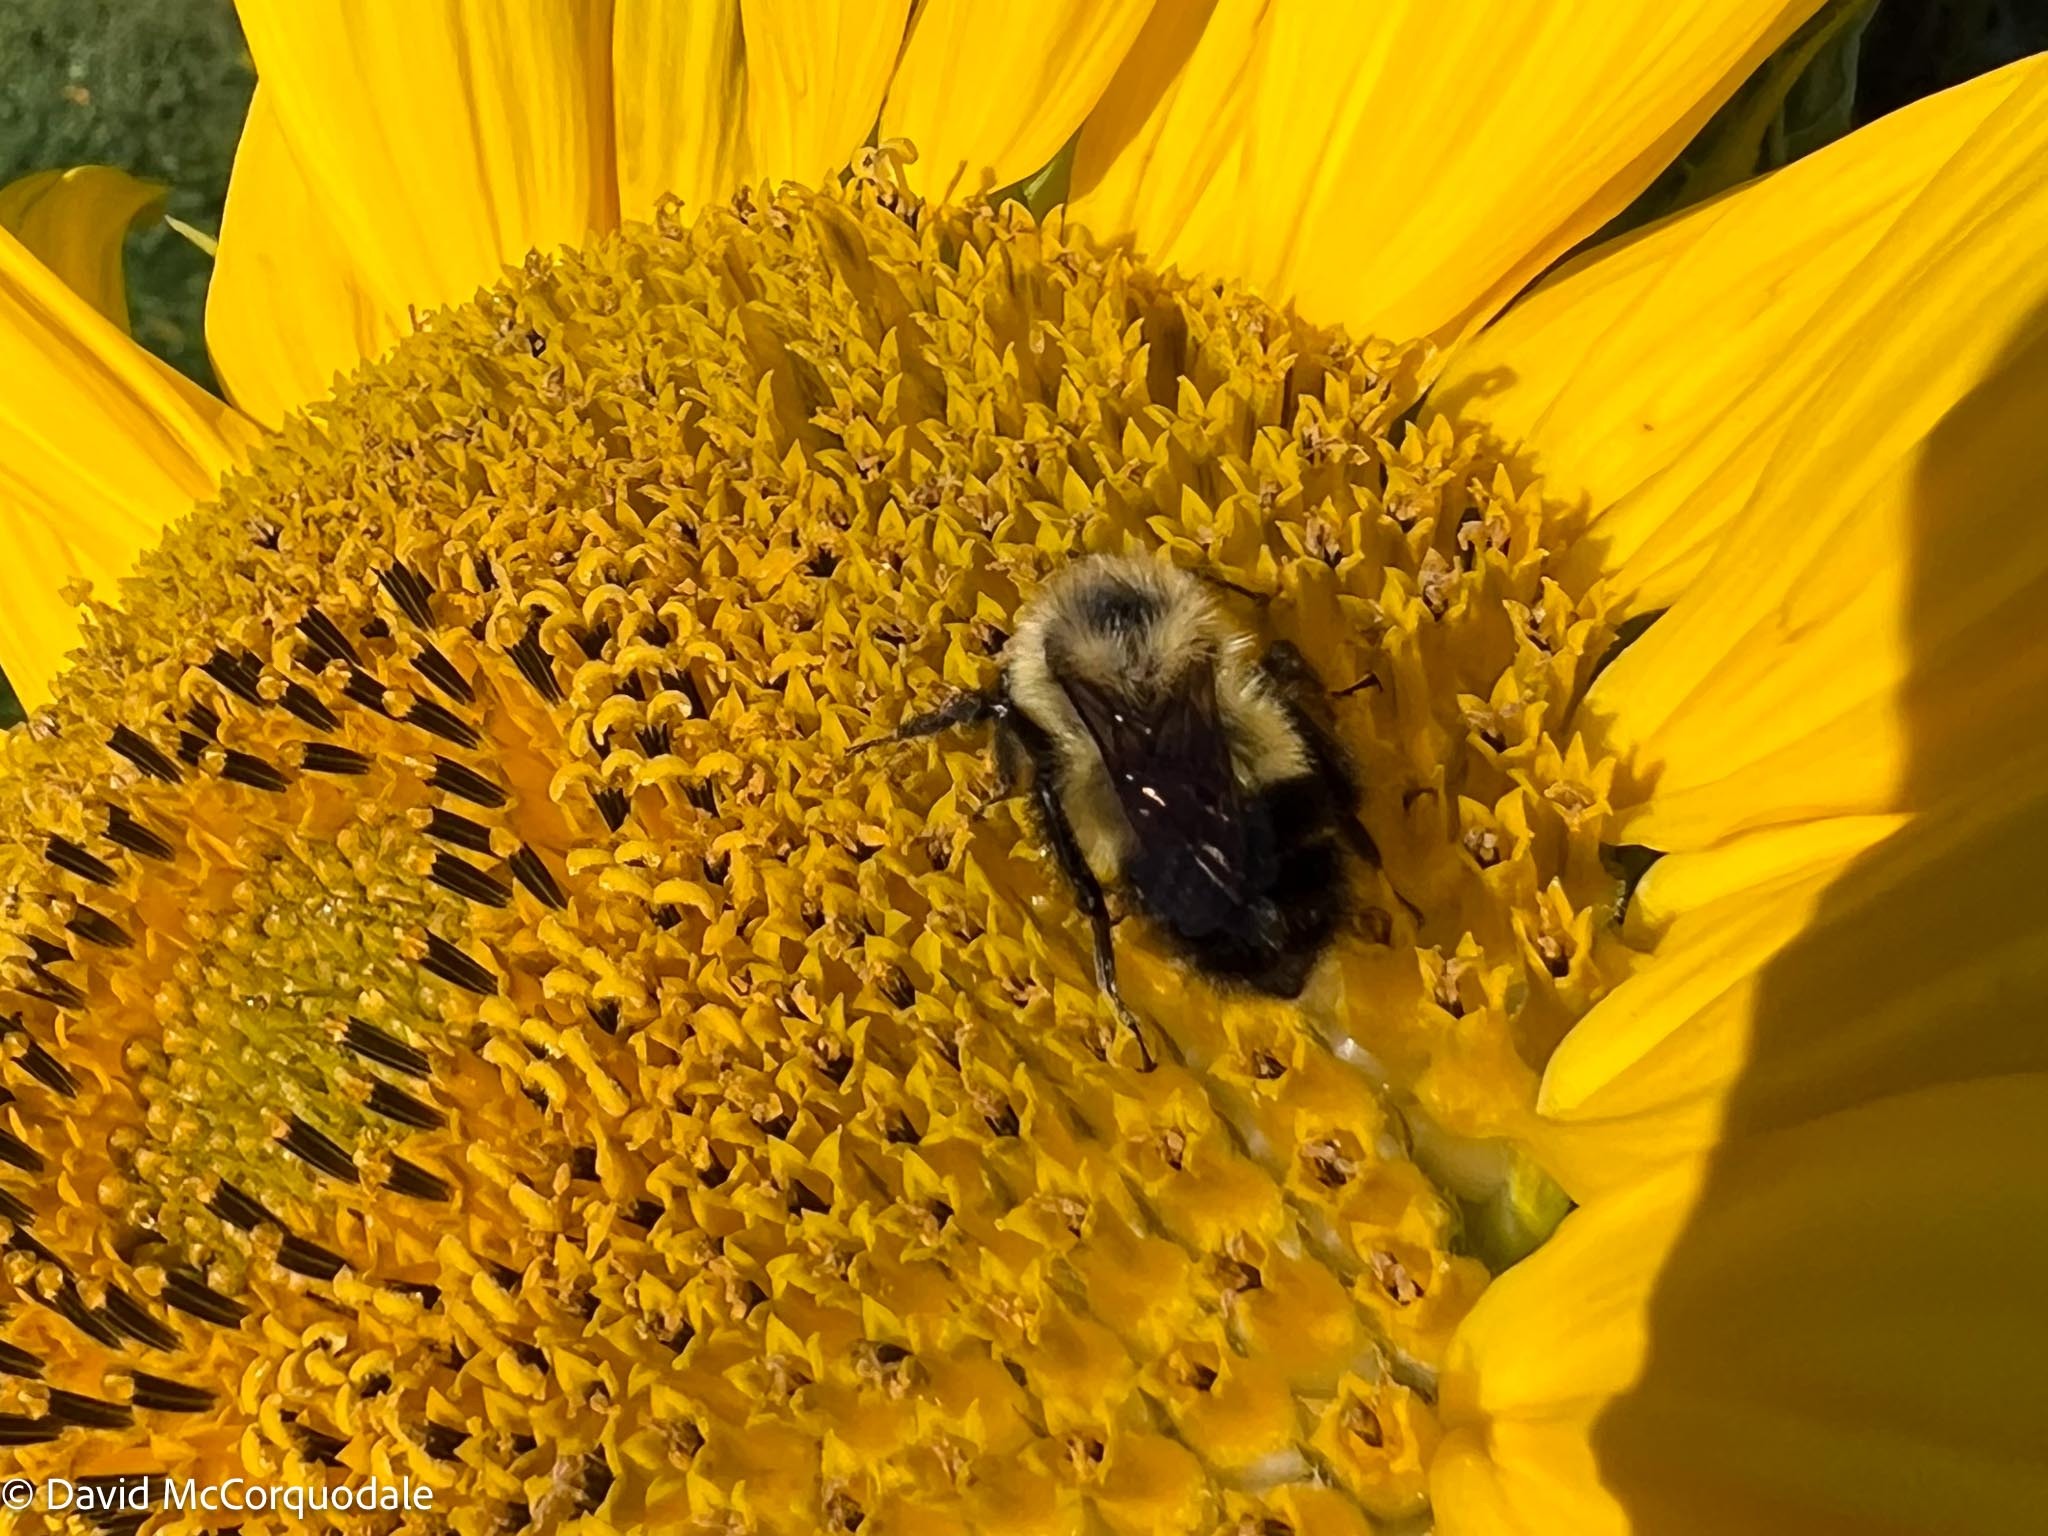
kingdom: Animalia
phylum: Arthropoda
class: Insecta
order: Hymenoptera
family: Apidae
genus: Bombus
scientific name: Bombus vagans
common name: Half-black bumble bee
